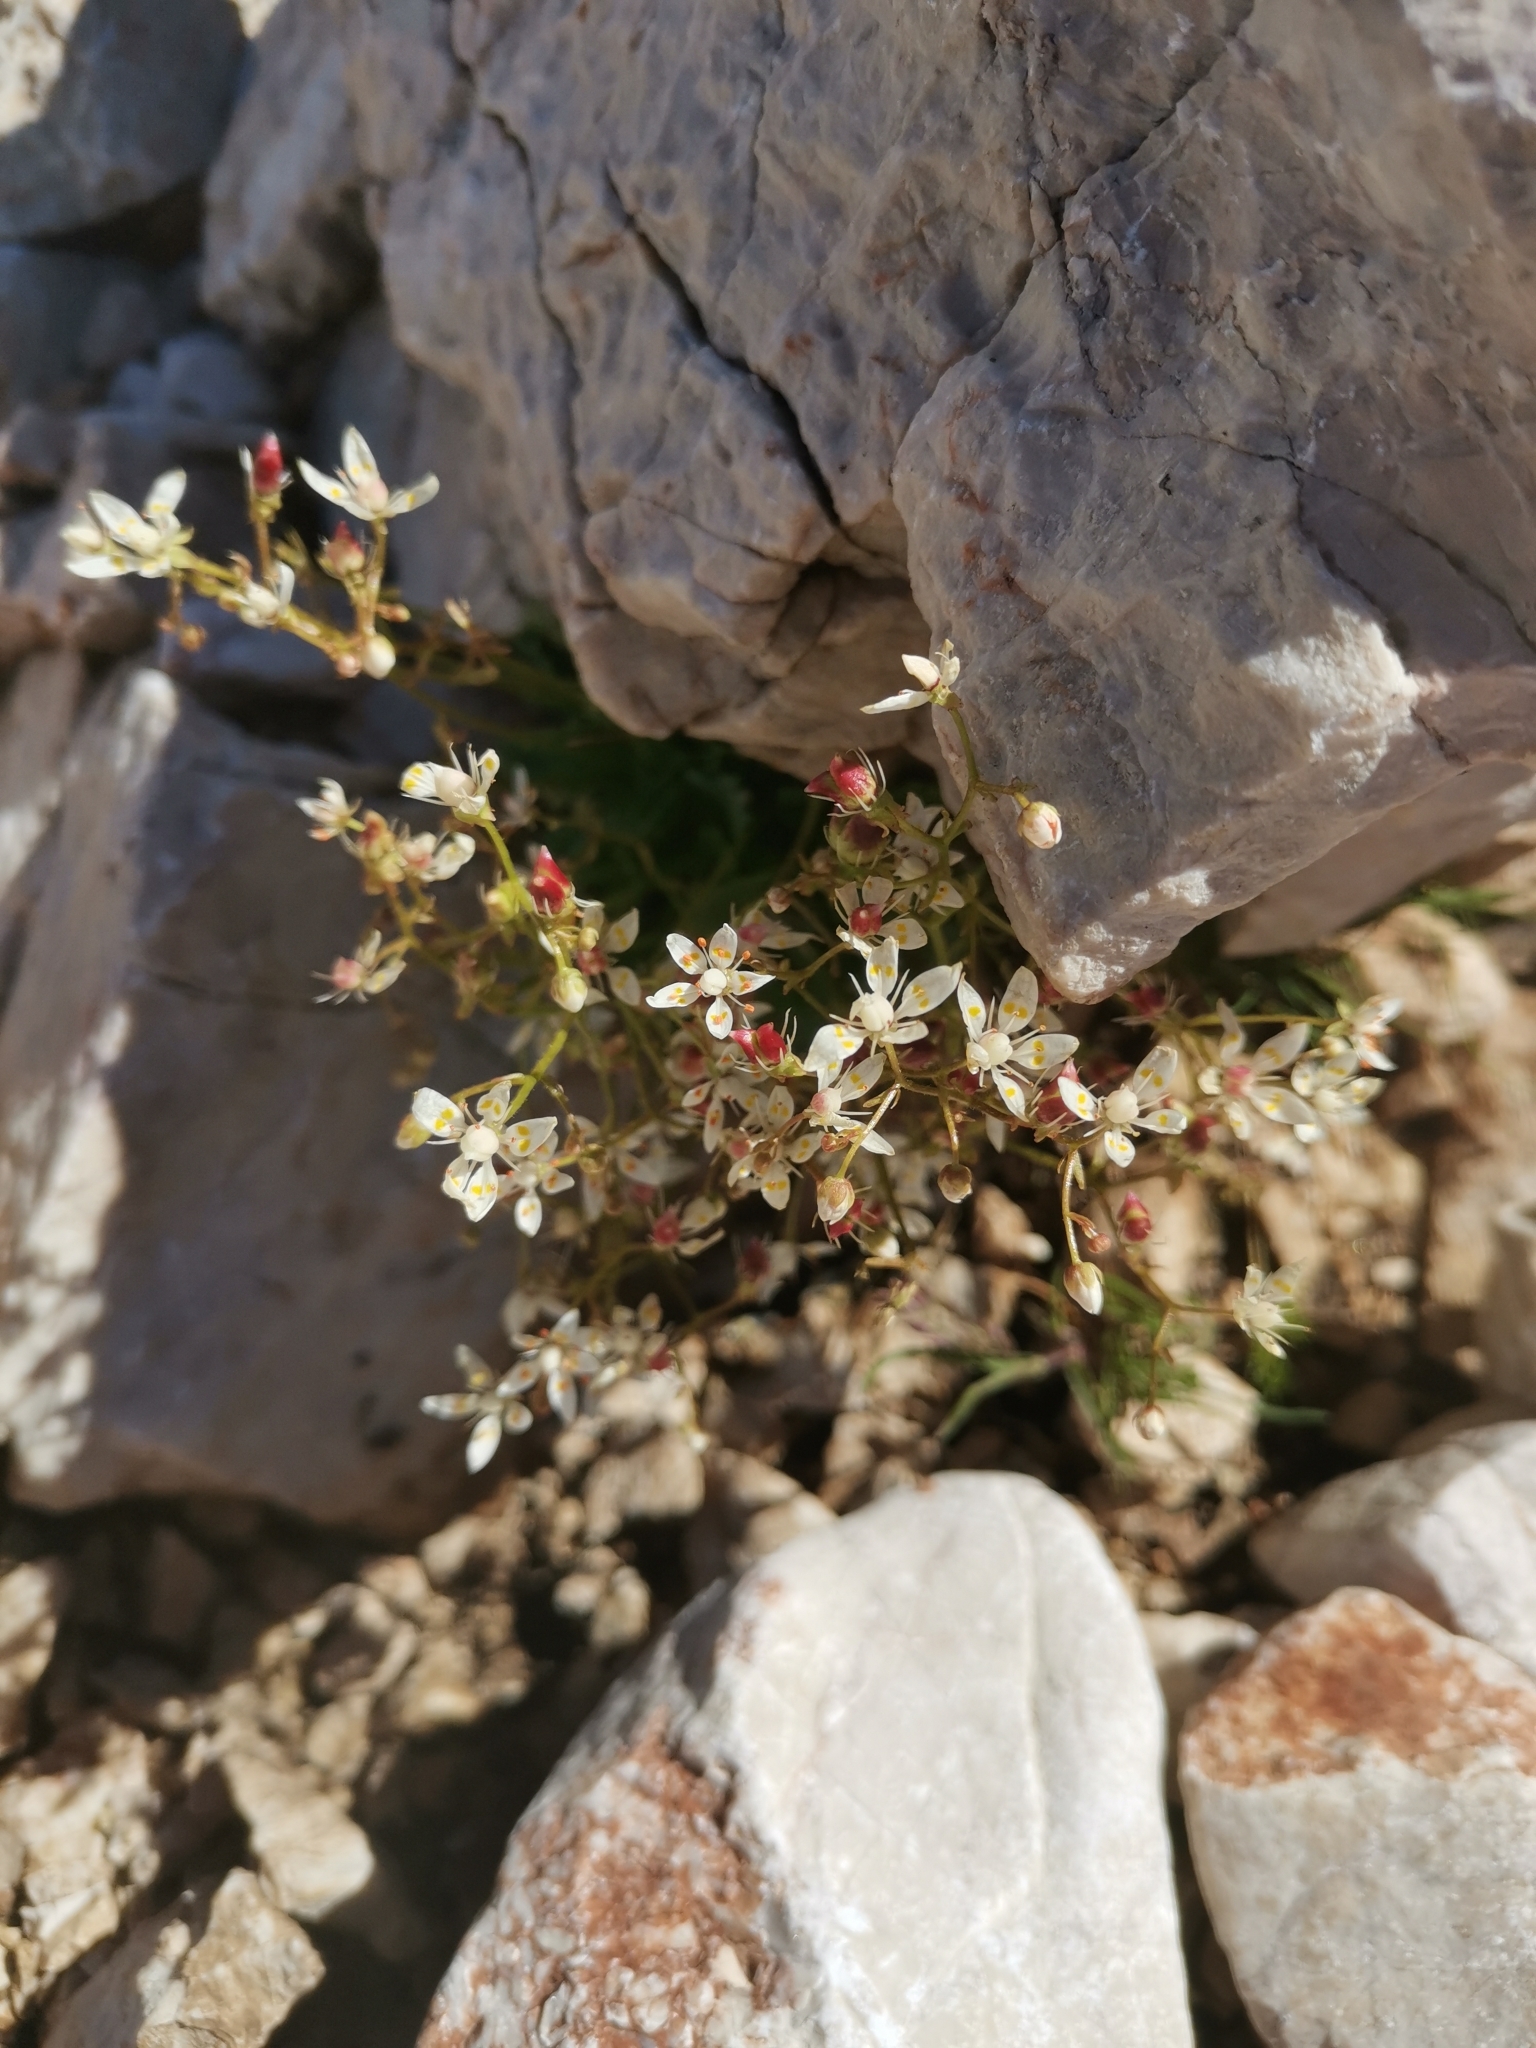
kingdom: Plantae
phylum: Tracheophyta
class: Magnoliopsida
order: Saxifragales
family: Saxifragaceae
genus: Micranthes
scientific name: Micranthes stellaris
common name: Starry saxifrage
